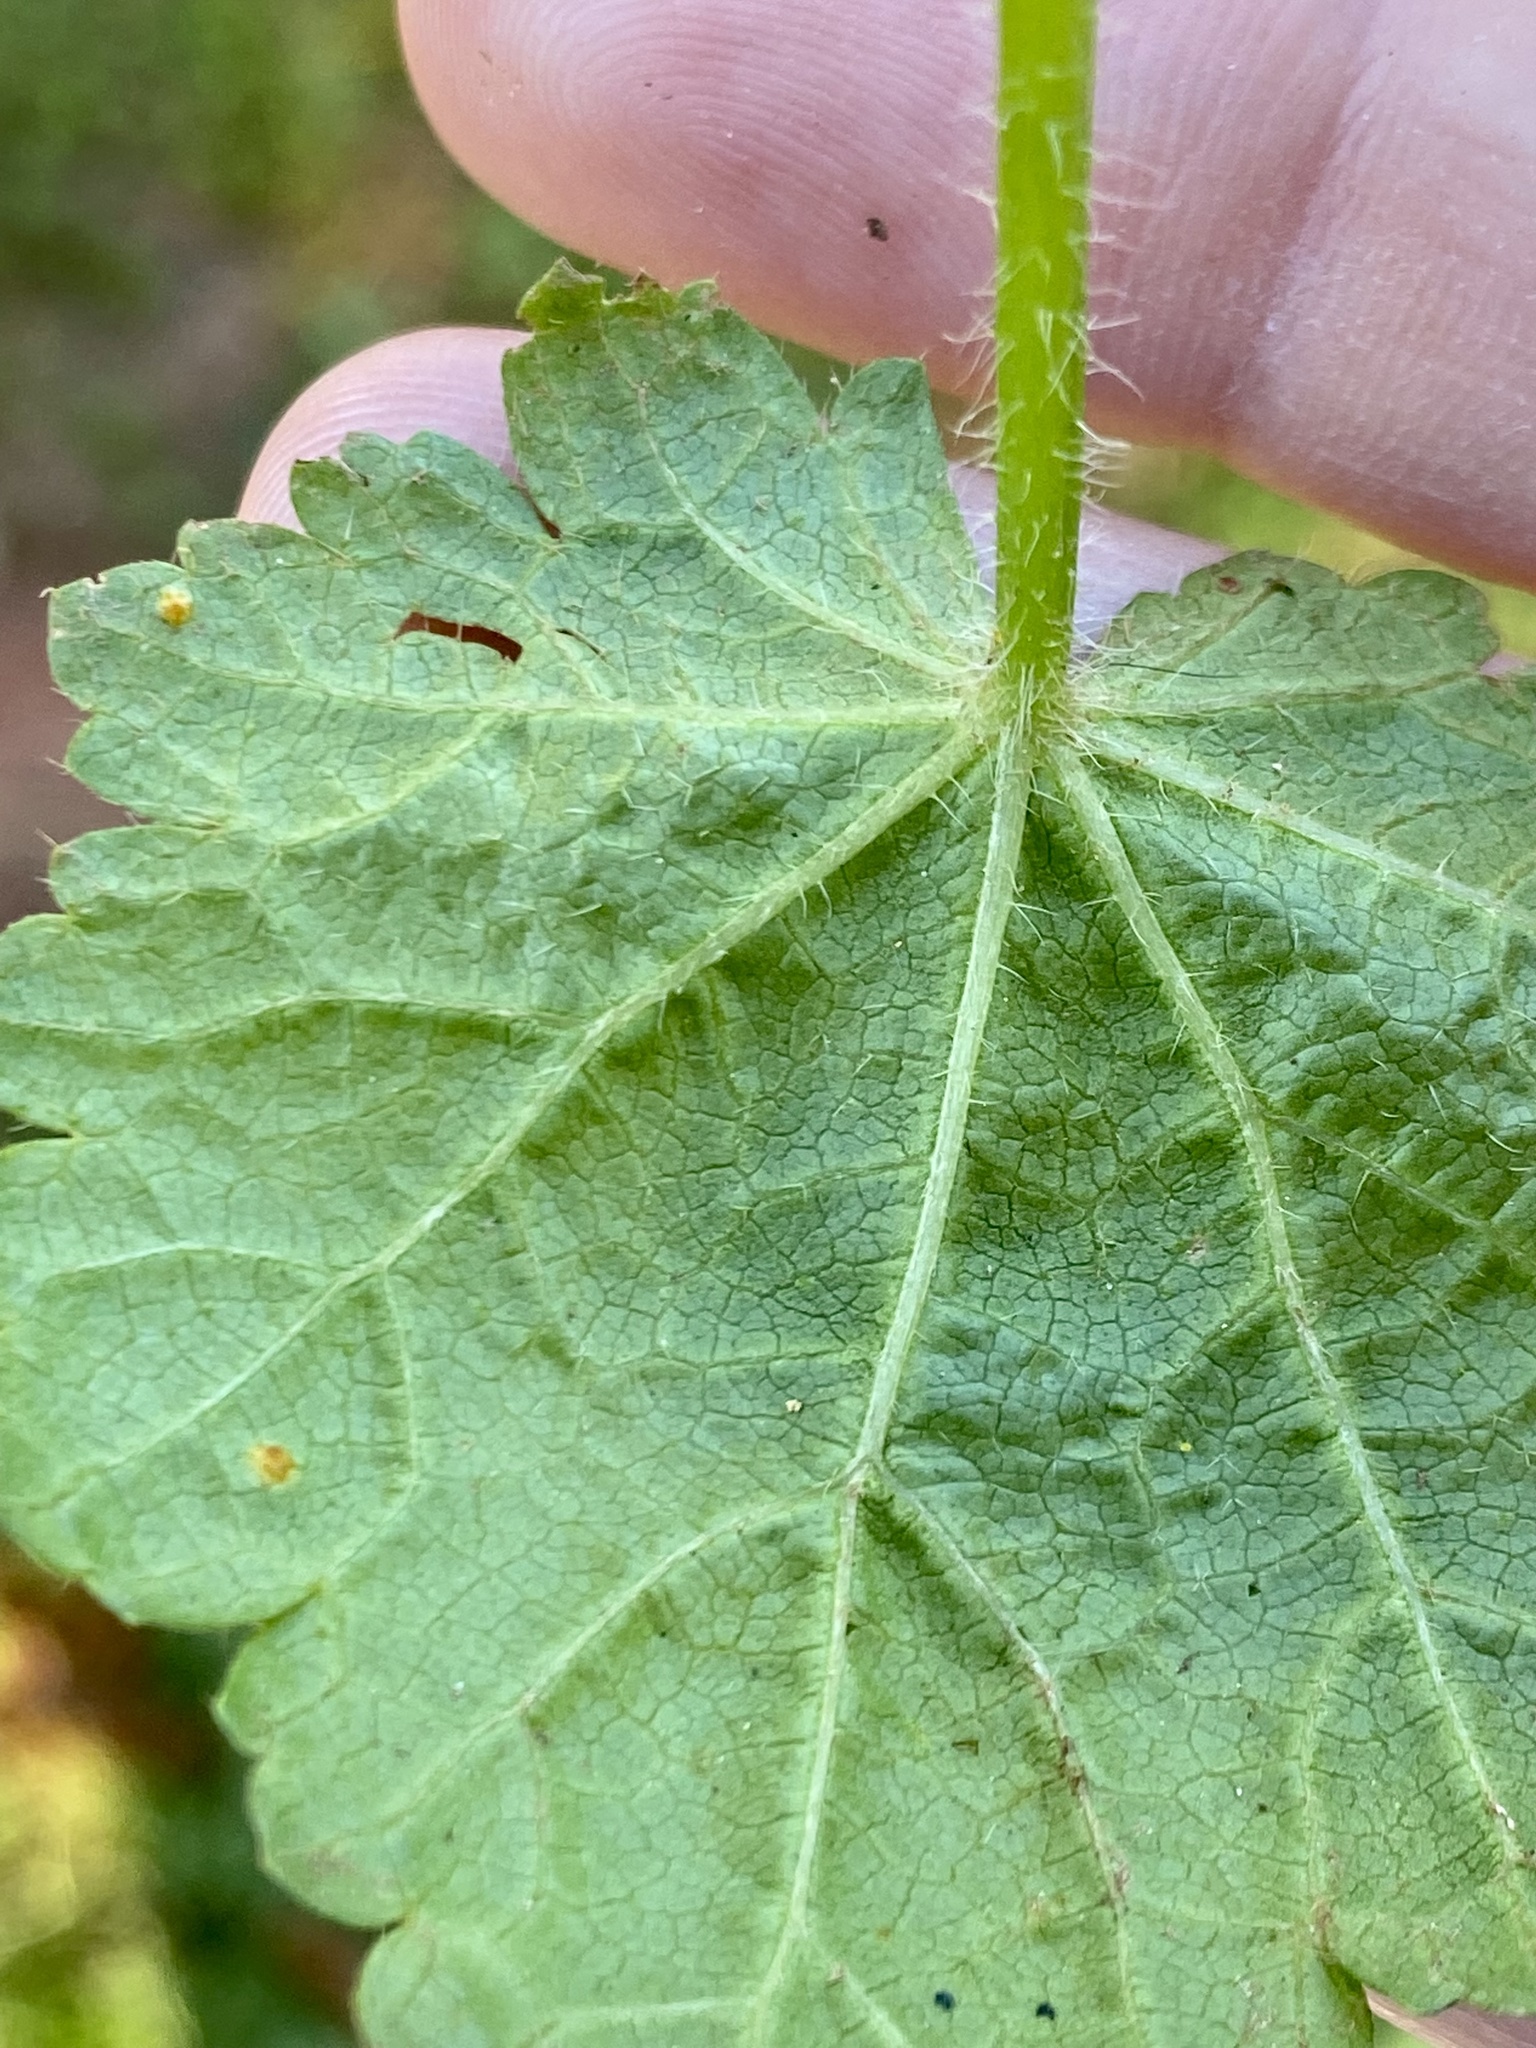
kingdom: Plantae
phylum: Tracheophyta
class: Magnoliopsida
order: Malvales
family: Malvaceae
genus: Modiola
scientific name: Modiola caroliniana
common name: Carolina bristlemallow
